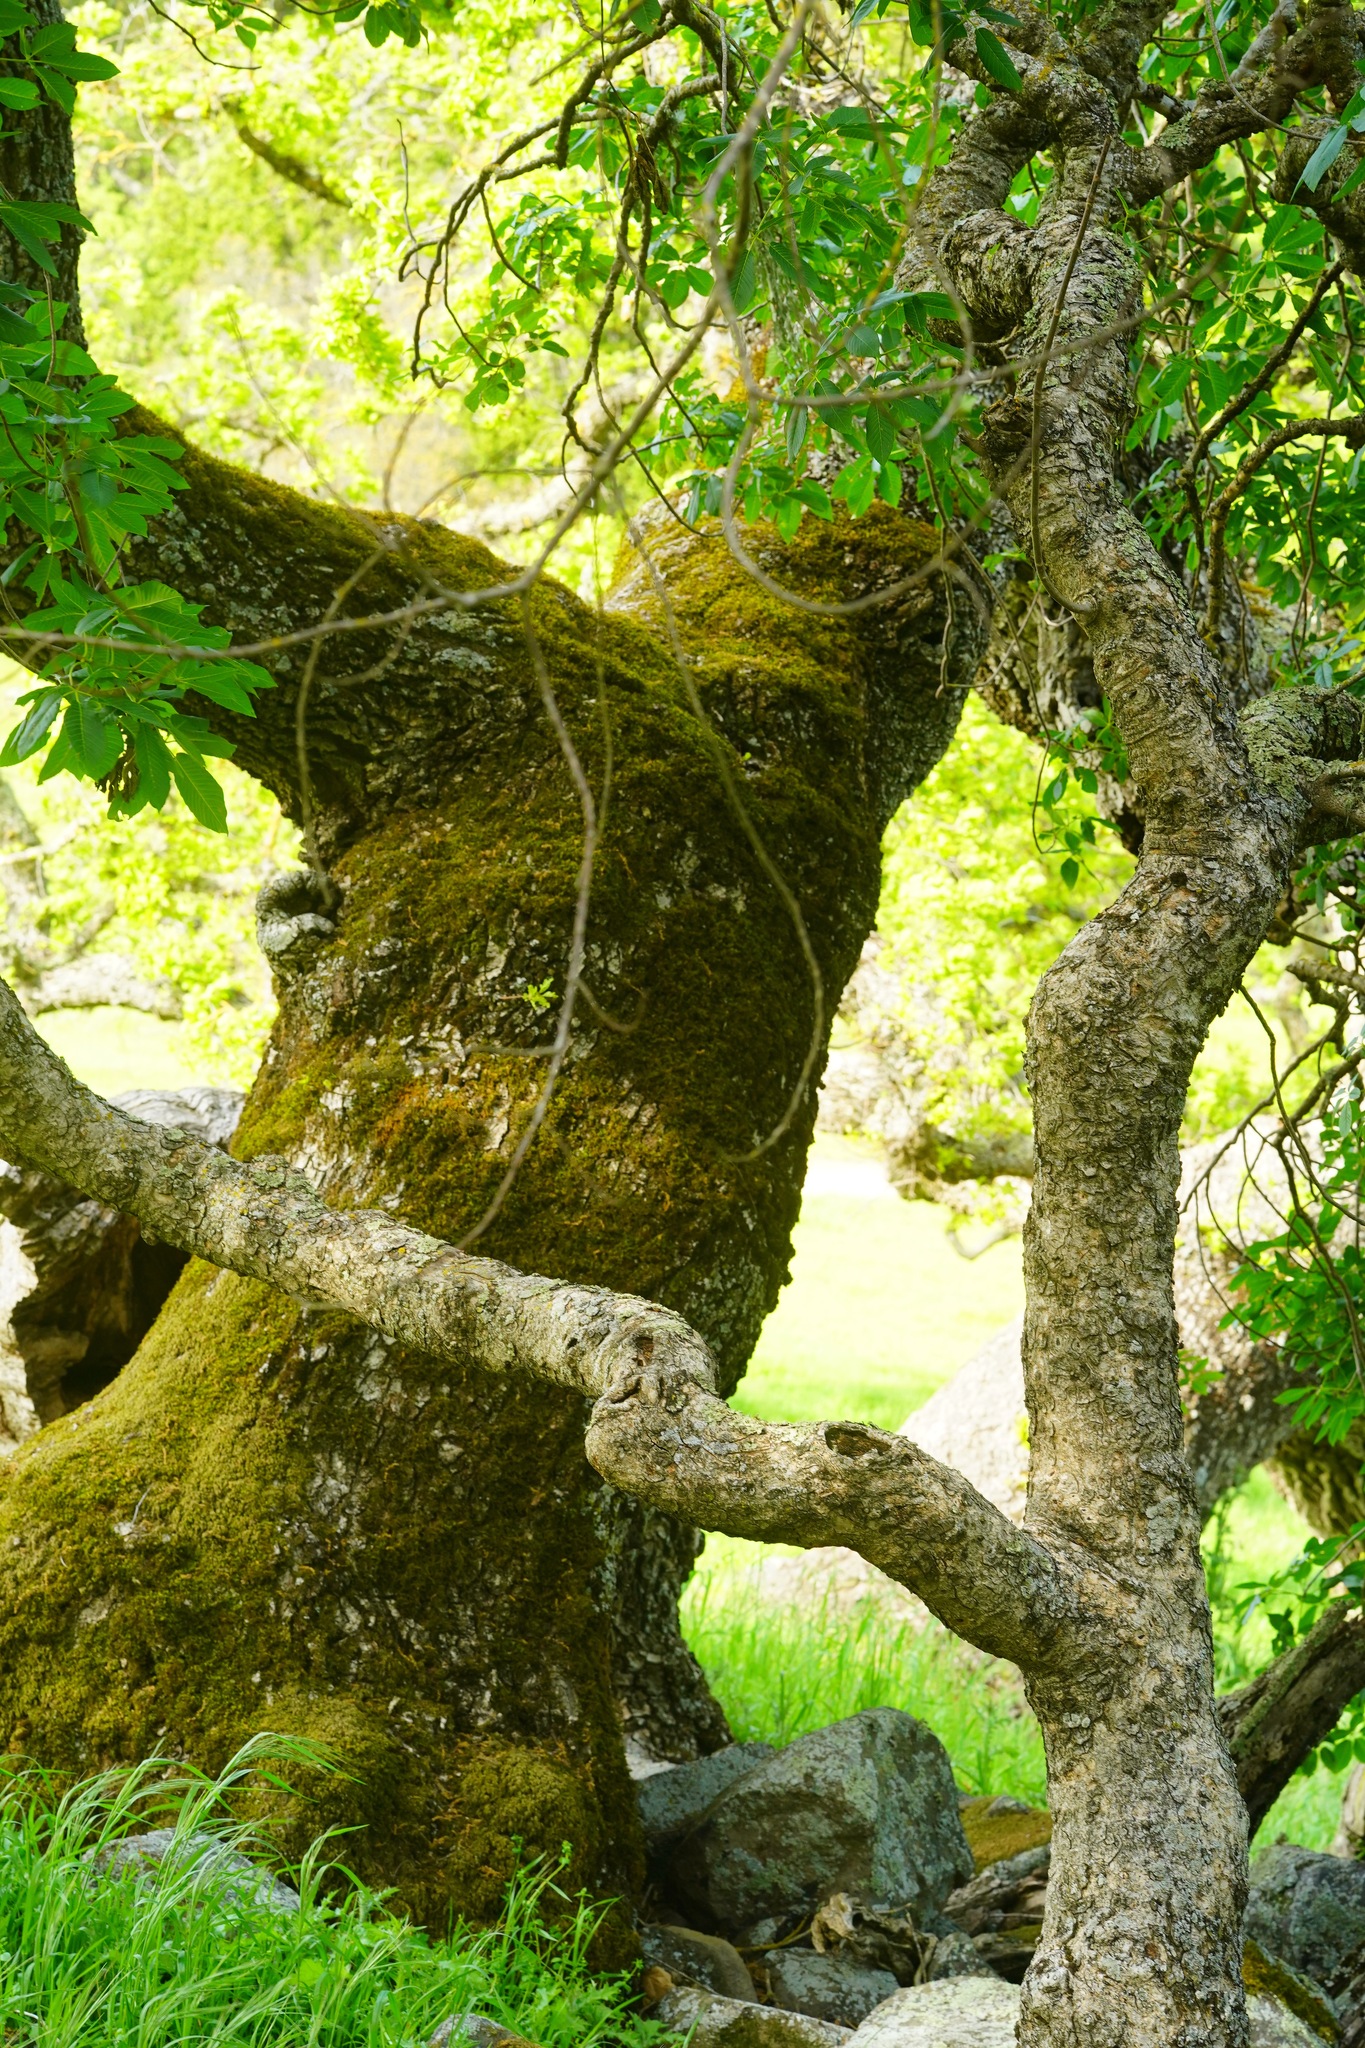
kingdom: Plantae
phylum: Tracheophyta
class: Magnoliopsida
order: Sapindales
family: Sapindaceae
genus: Aesculus
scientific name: Aesculus californica
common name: California buckeye
